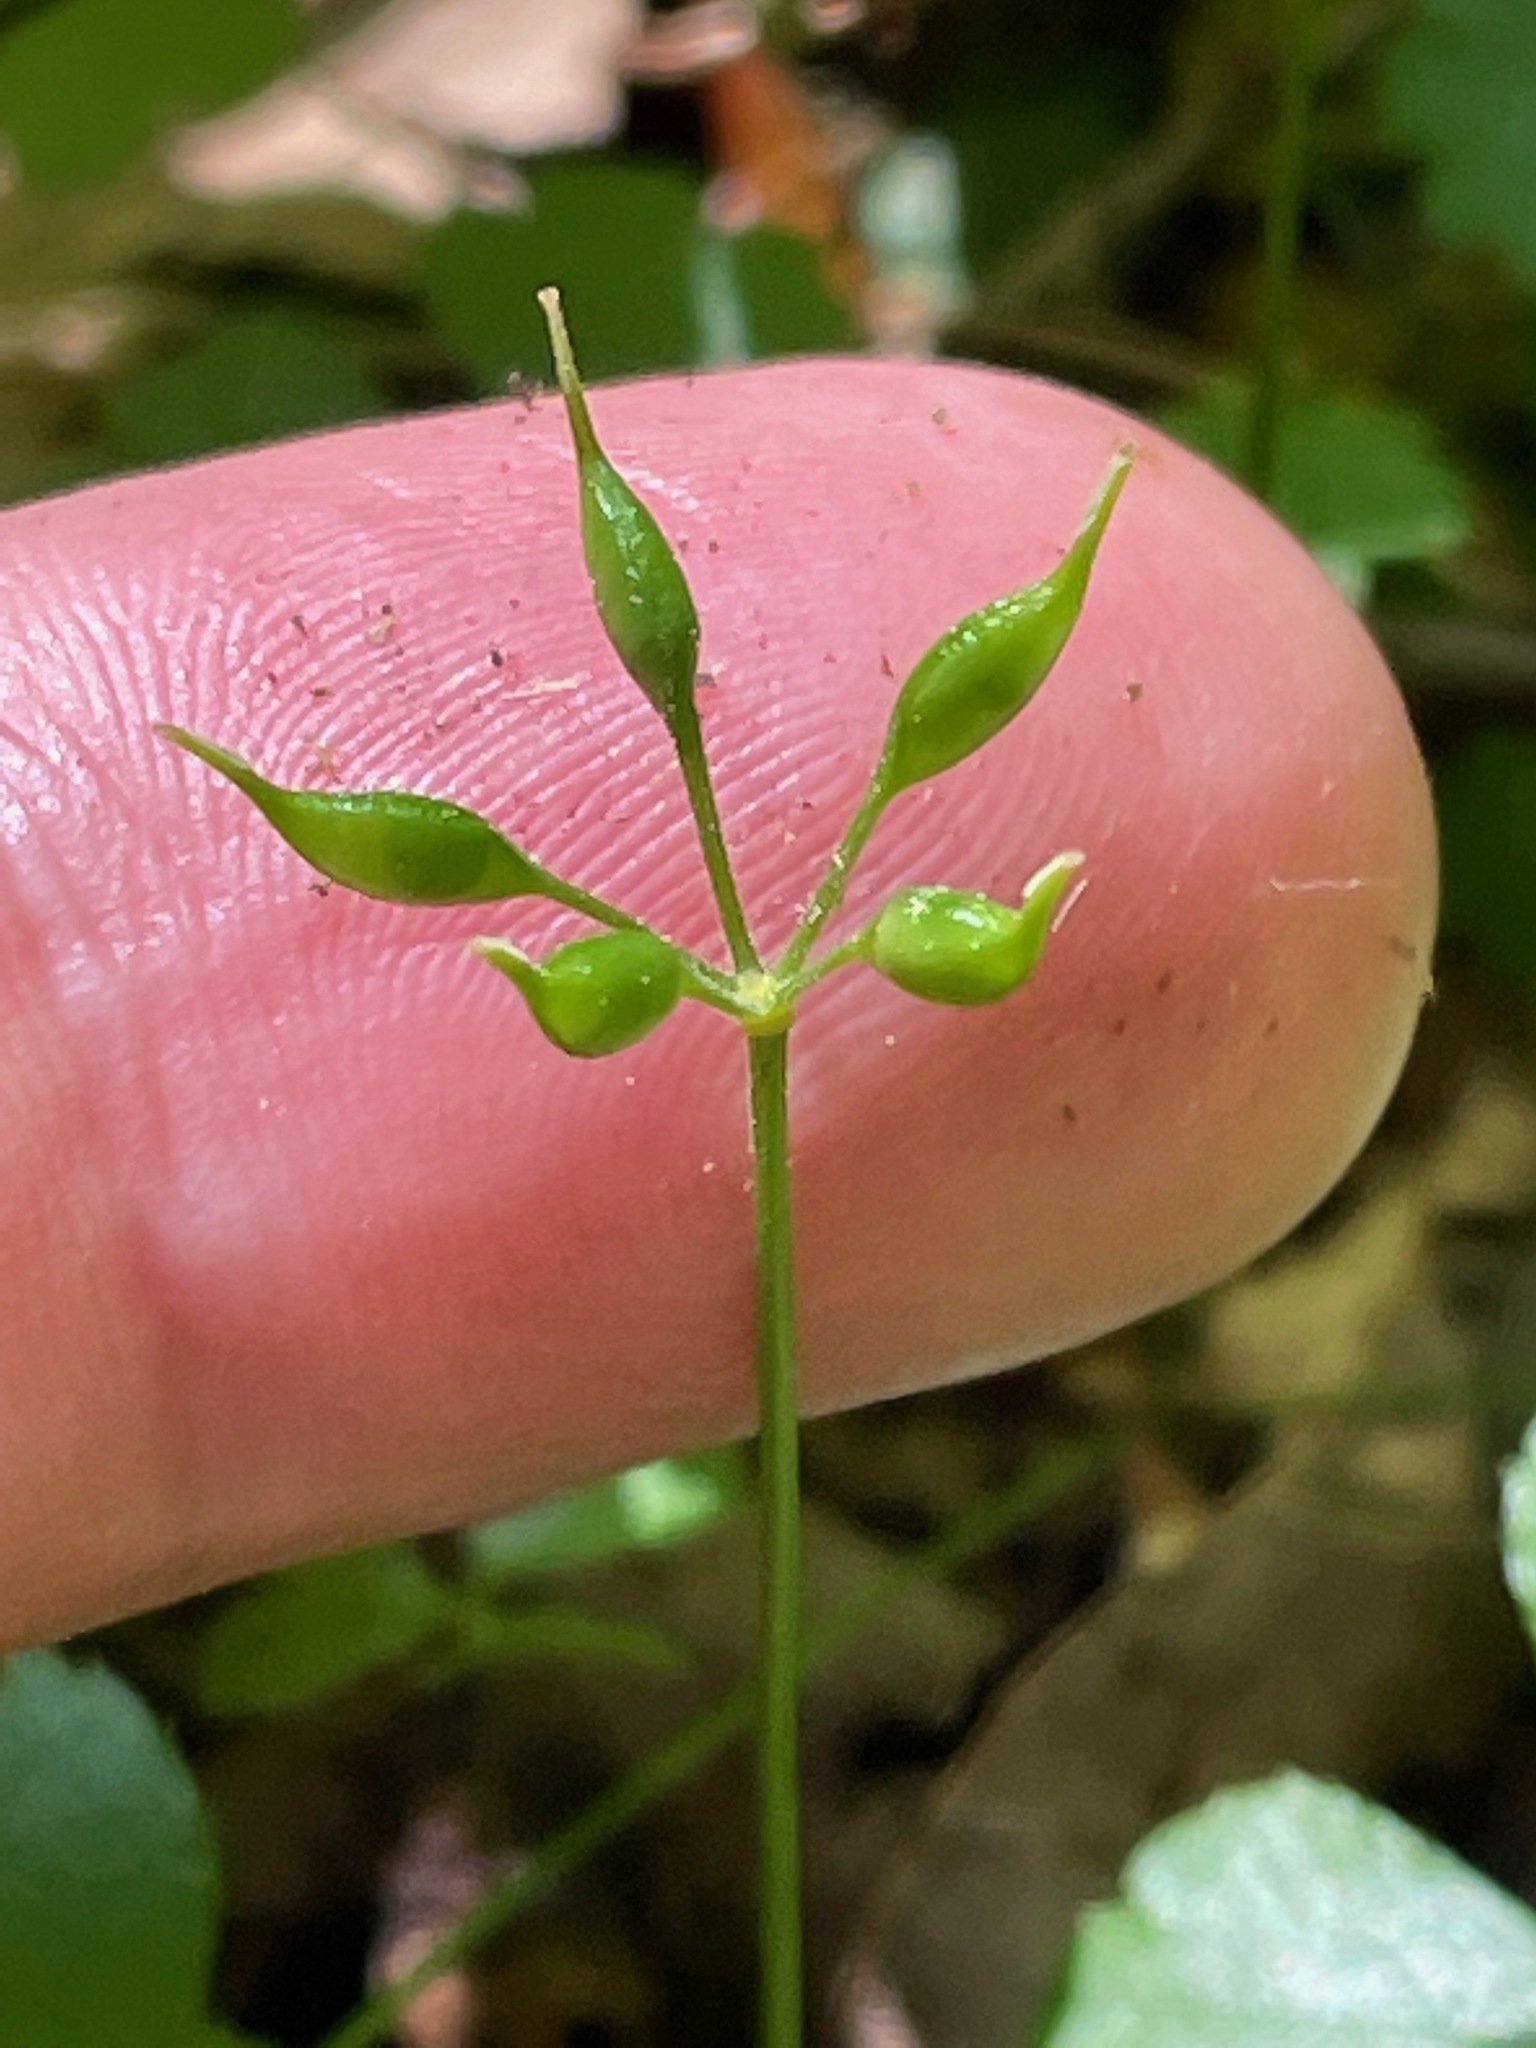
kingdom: Plantae
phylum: Tracheophyta
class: Magnoliopsida
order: Ranunculales
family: Ranunculaceae
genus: Coptis
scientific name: Coptis trifolia
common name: Canker-root
